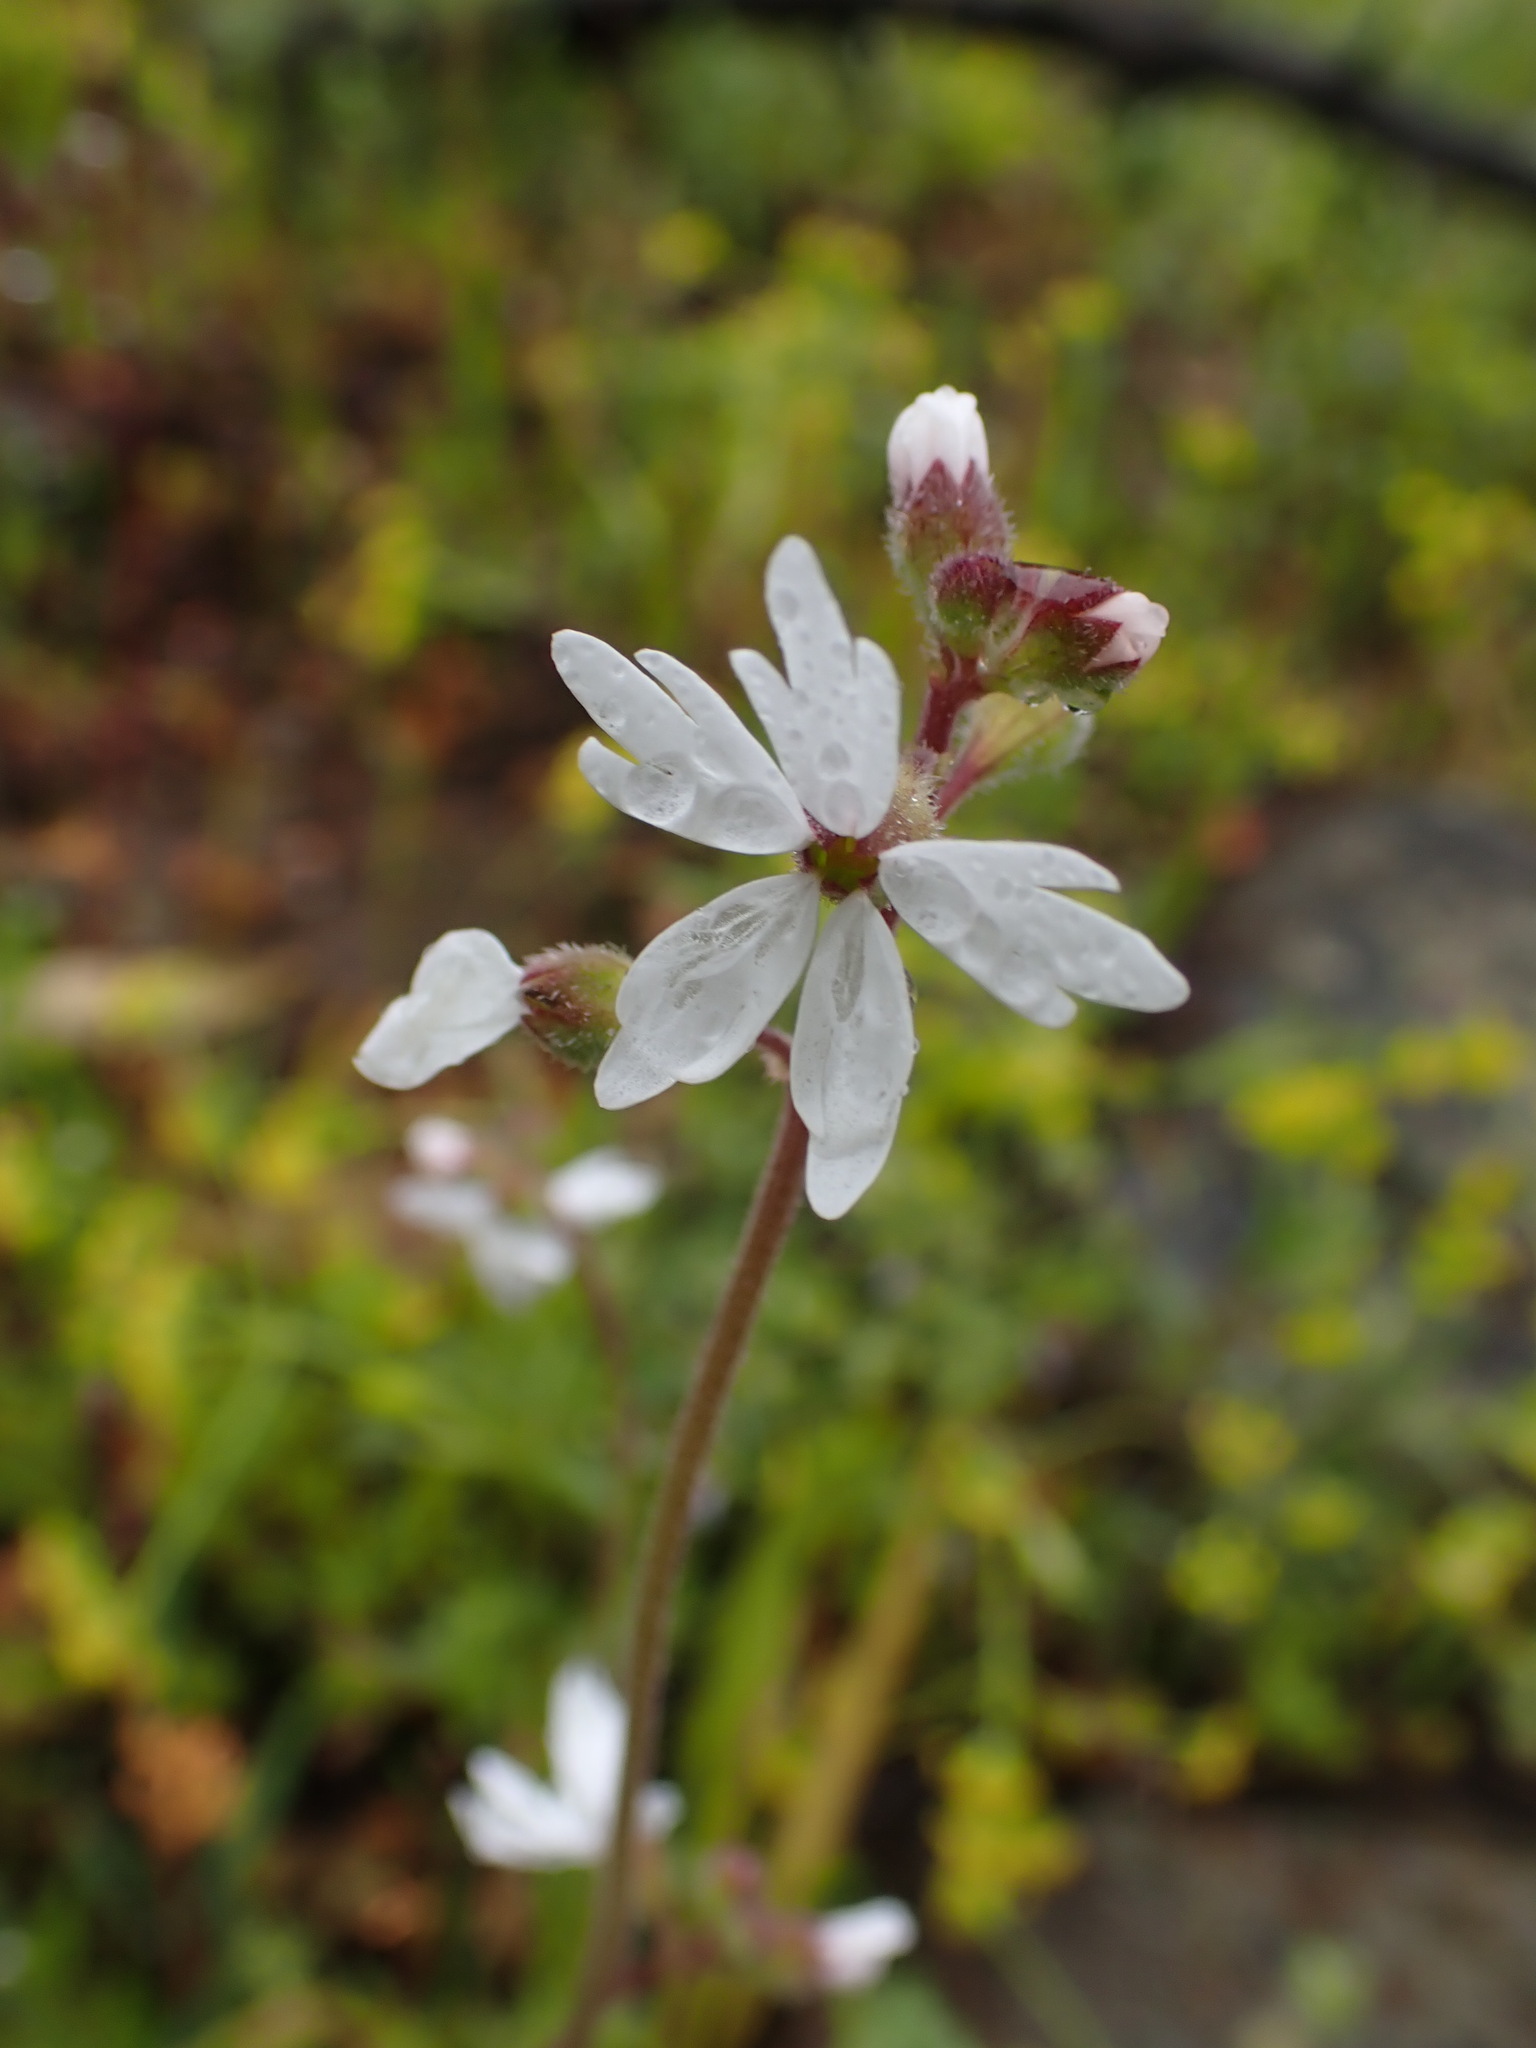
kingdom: Plantae
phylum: Tracheophyta
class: Magnoliopsida
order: Saxifragales
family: Saxifragaceae
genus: Lithophragma
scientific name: Lithophragma parviflorum
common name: Small-flowered fringe-cup
